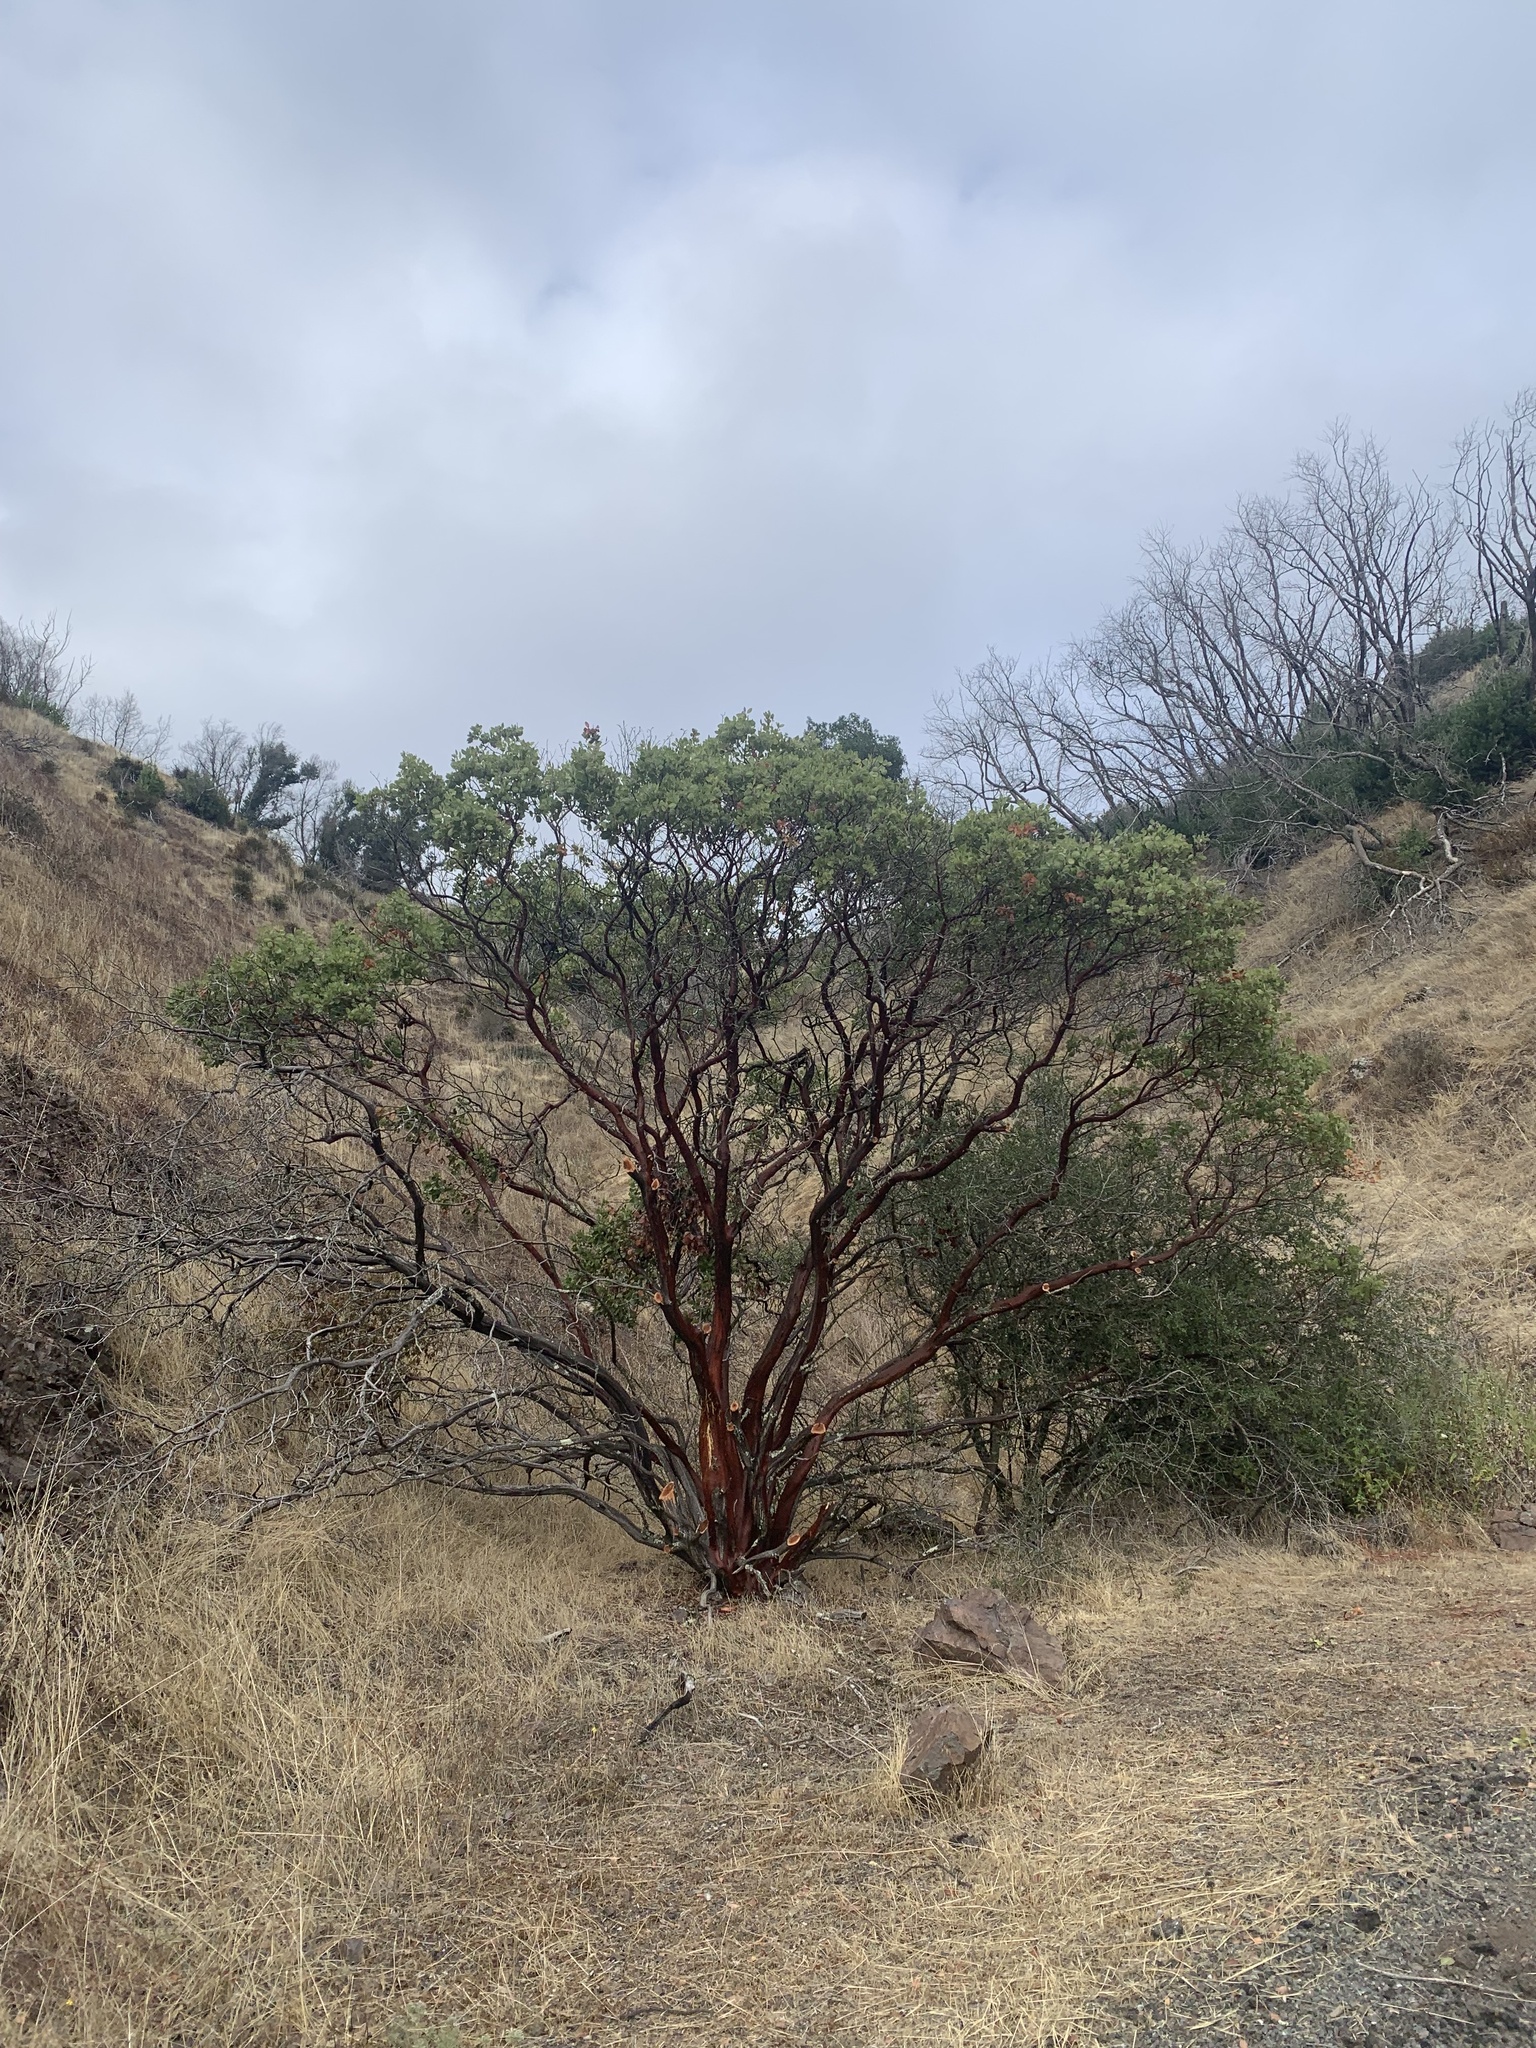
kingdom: Plantae
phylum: Tracheophyta
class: Magnoliopsida
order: Ericales
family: Ericaceae
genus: Arctostaphylos
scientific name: Arctostaphylos manzanita
